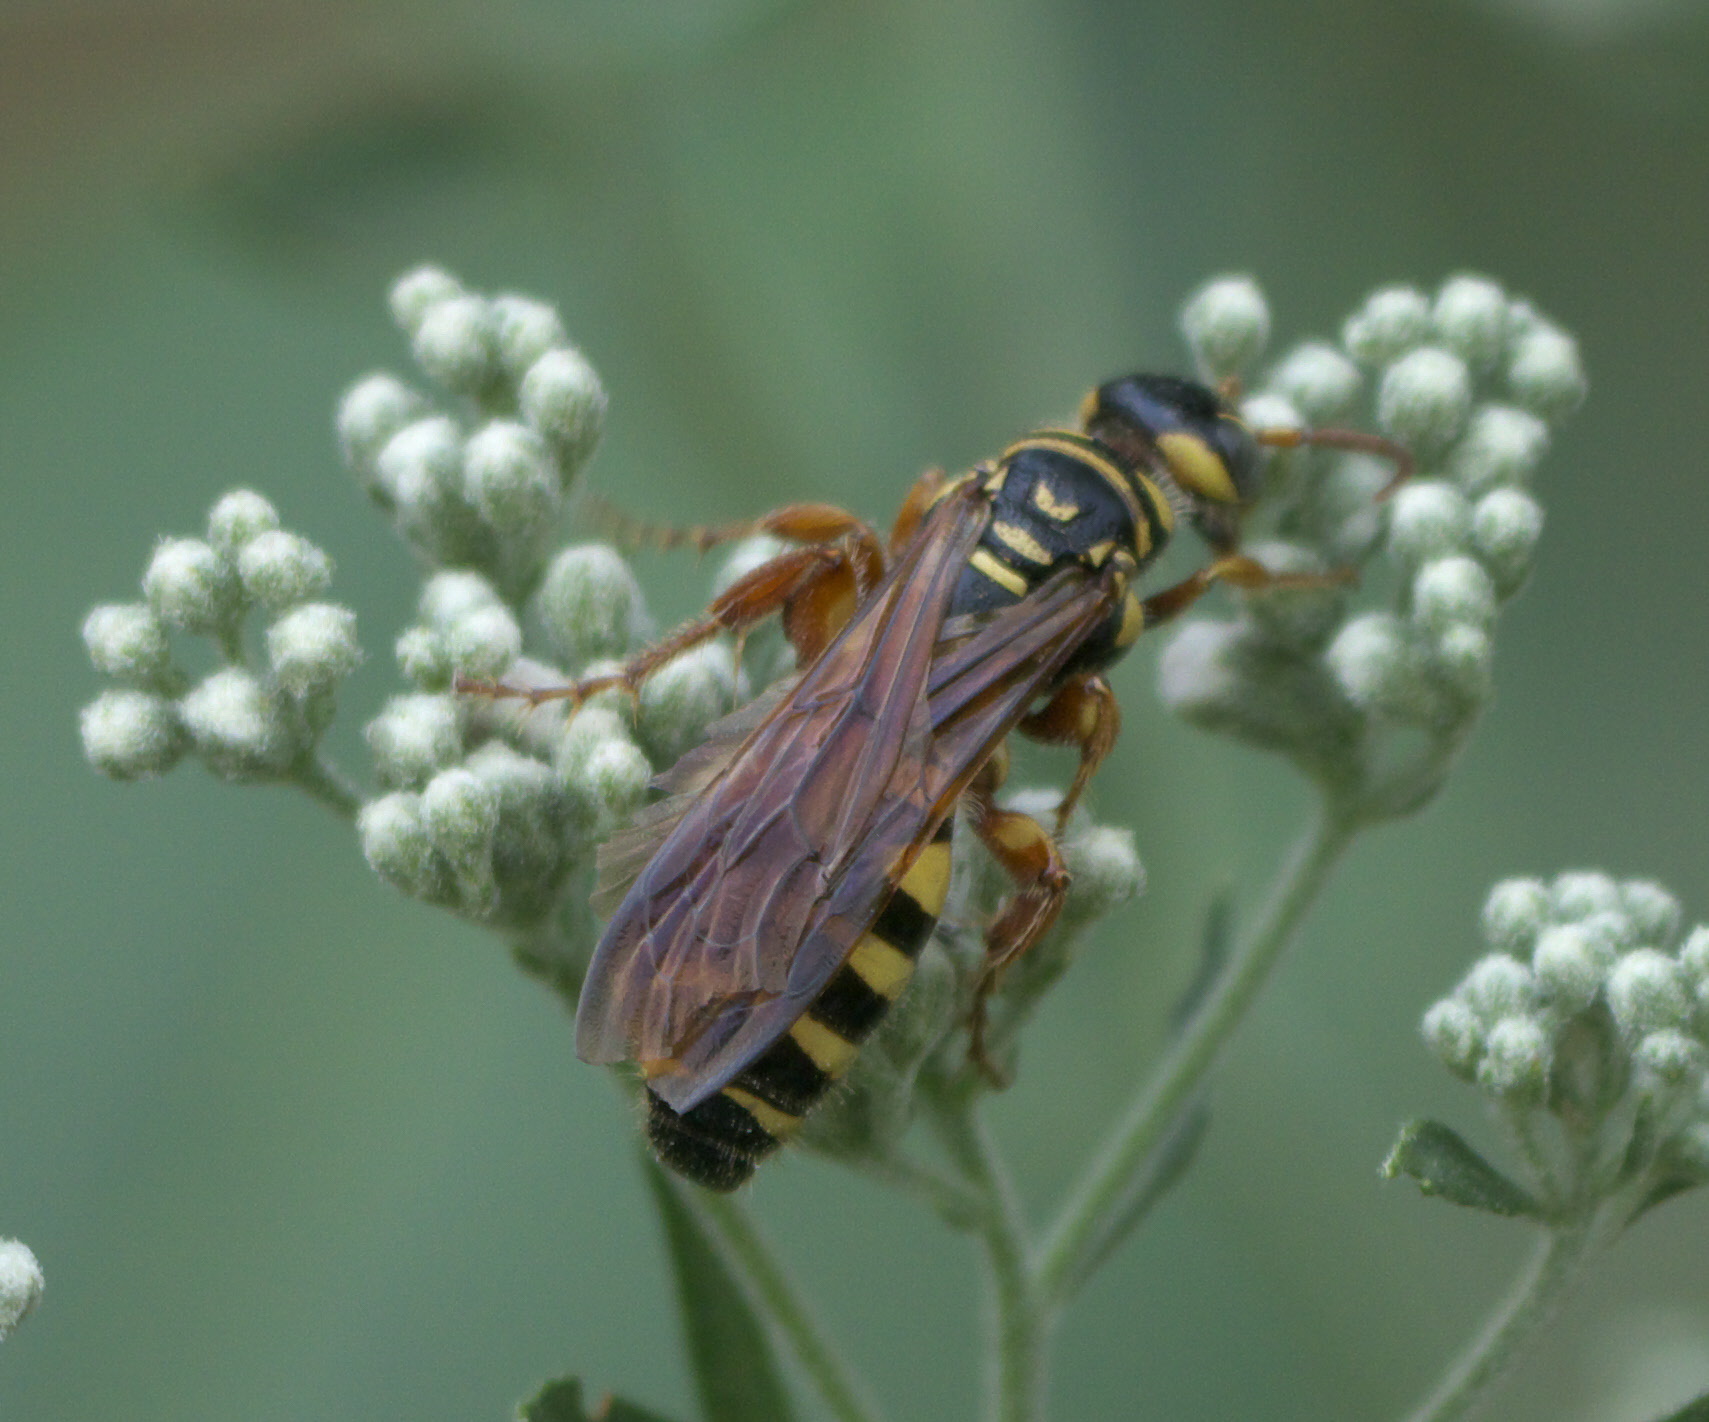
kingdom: Animalia
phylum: Arthropoda
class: Insecta
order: Hymenoptera
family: Tiphiidae
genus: Myzinum
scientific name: Myzinum quinquecinctum
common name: Five-banded thynnid wasp
